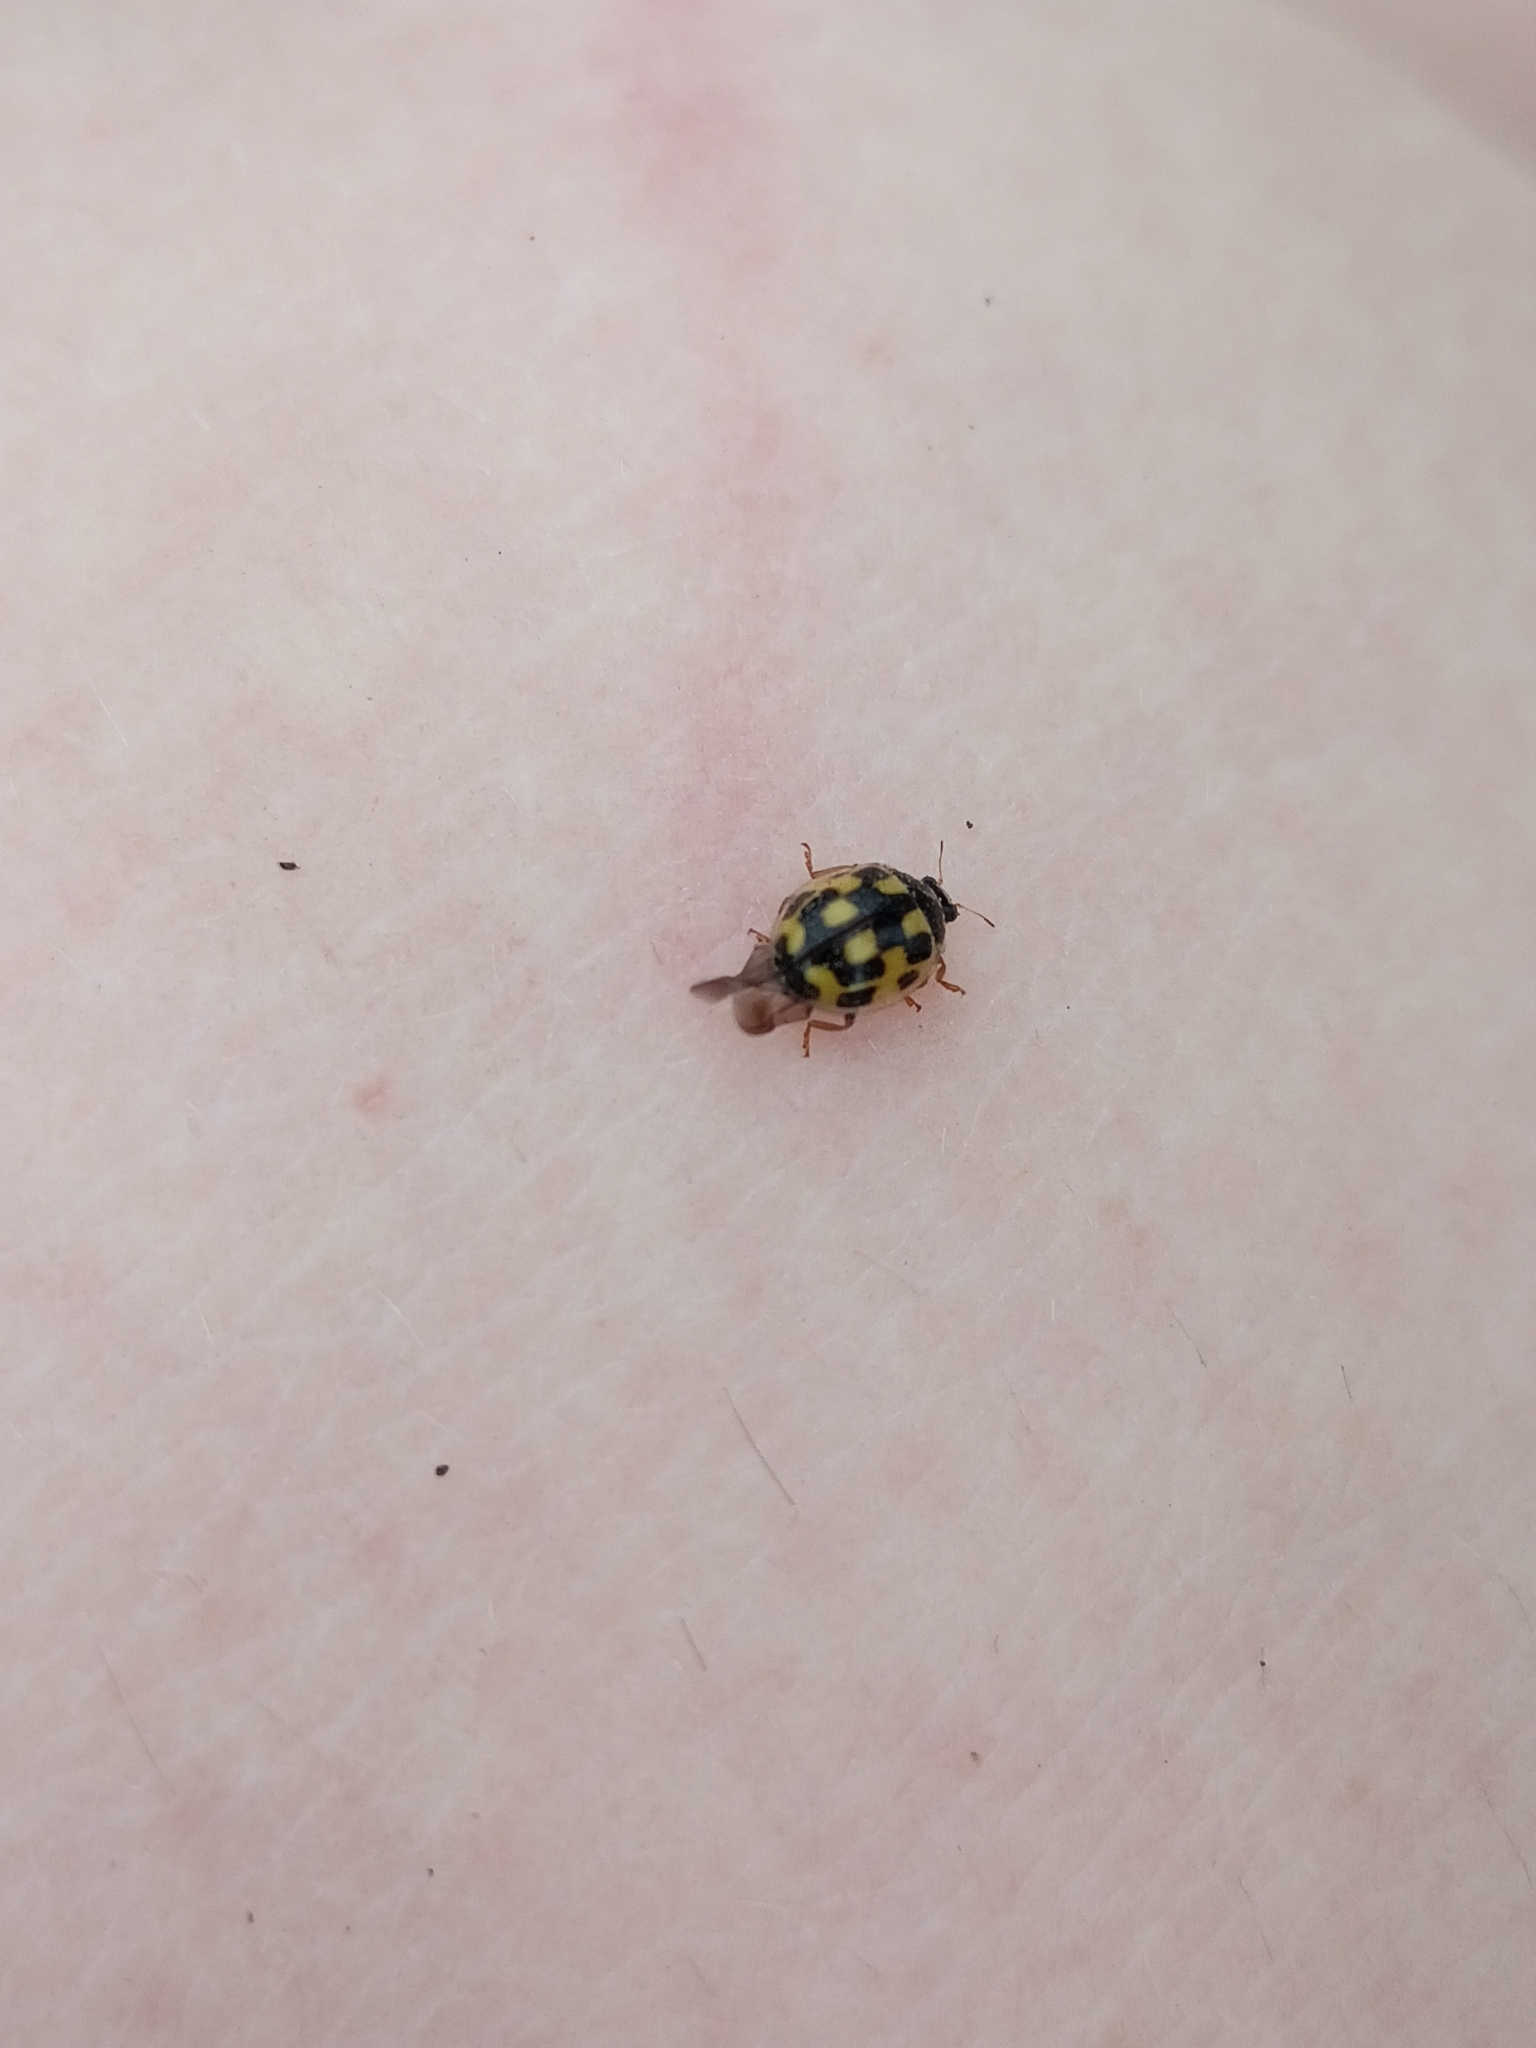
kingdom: Animalia
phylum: Arthropoda
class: Insecta
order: Coleoptera
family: Coccinellidae
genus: Propylaea
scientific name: Propylaea quatuordecimpunctata
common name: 14-spotted ladybird beetle
